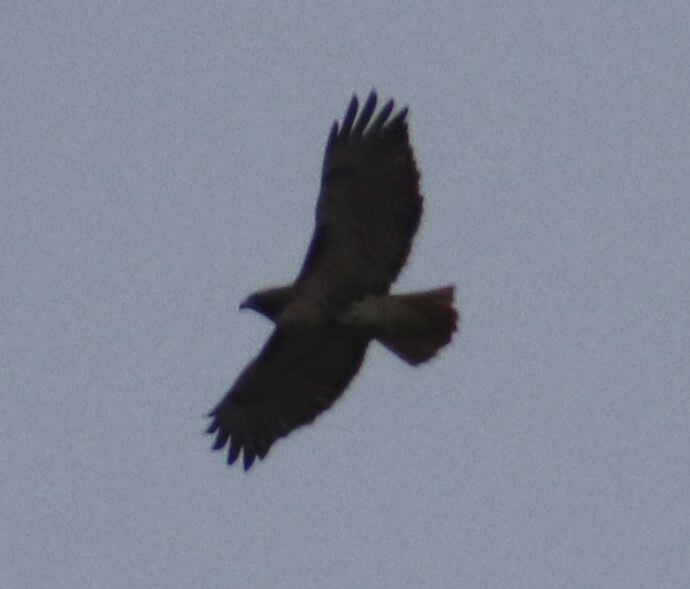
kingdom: Animalia
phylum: Chordata
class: Aves
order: Accipitriformes
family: Accipitridae
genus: Buteo
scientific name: Buteo jamaicensis
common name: Red-tailed hawk
